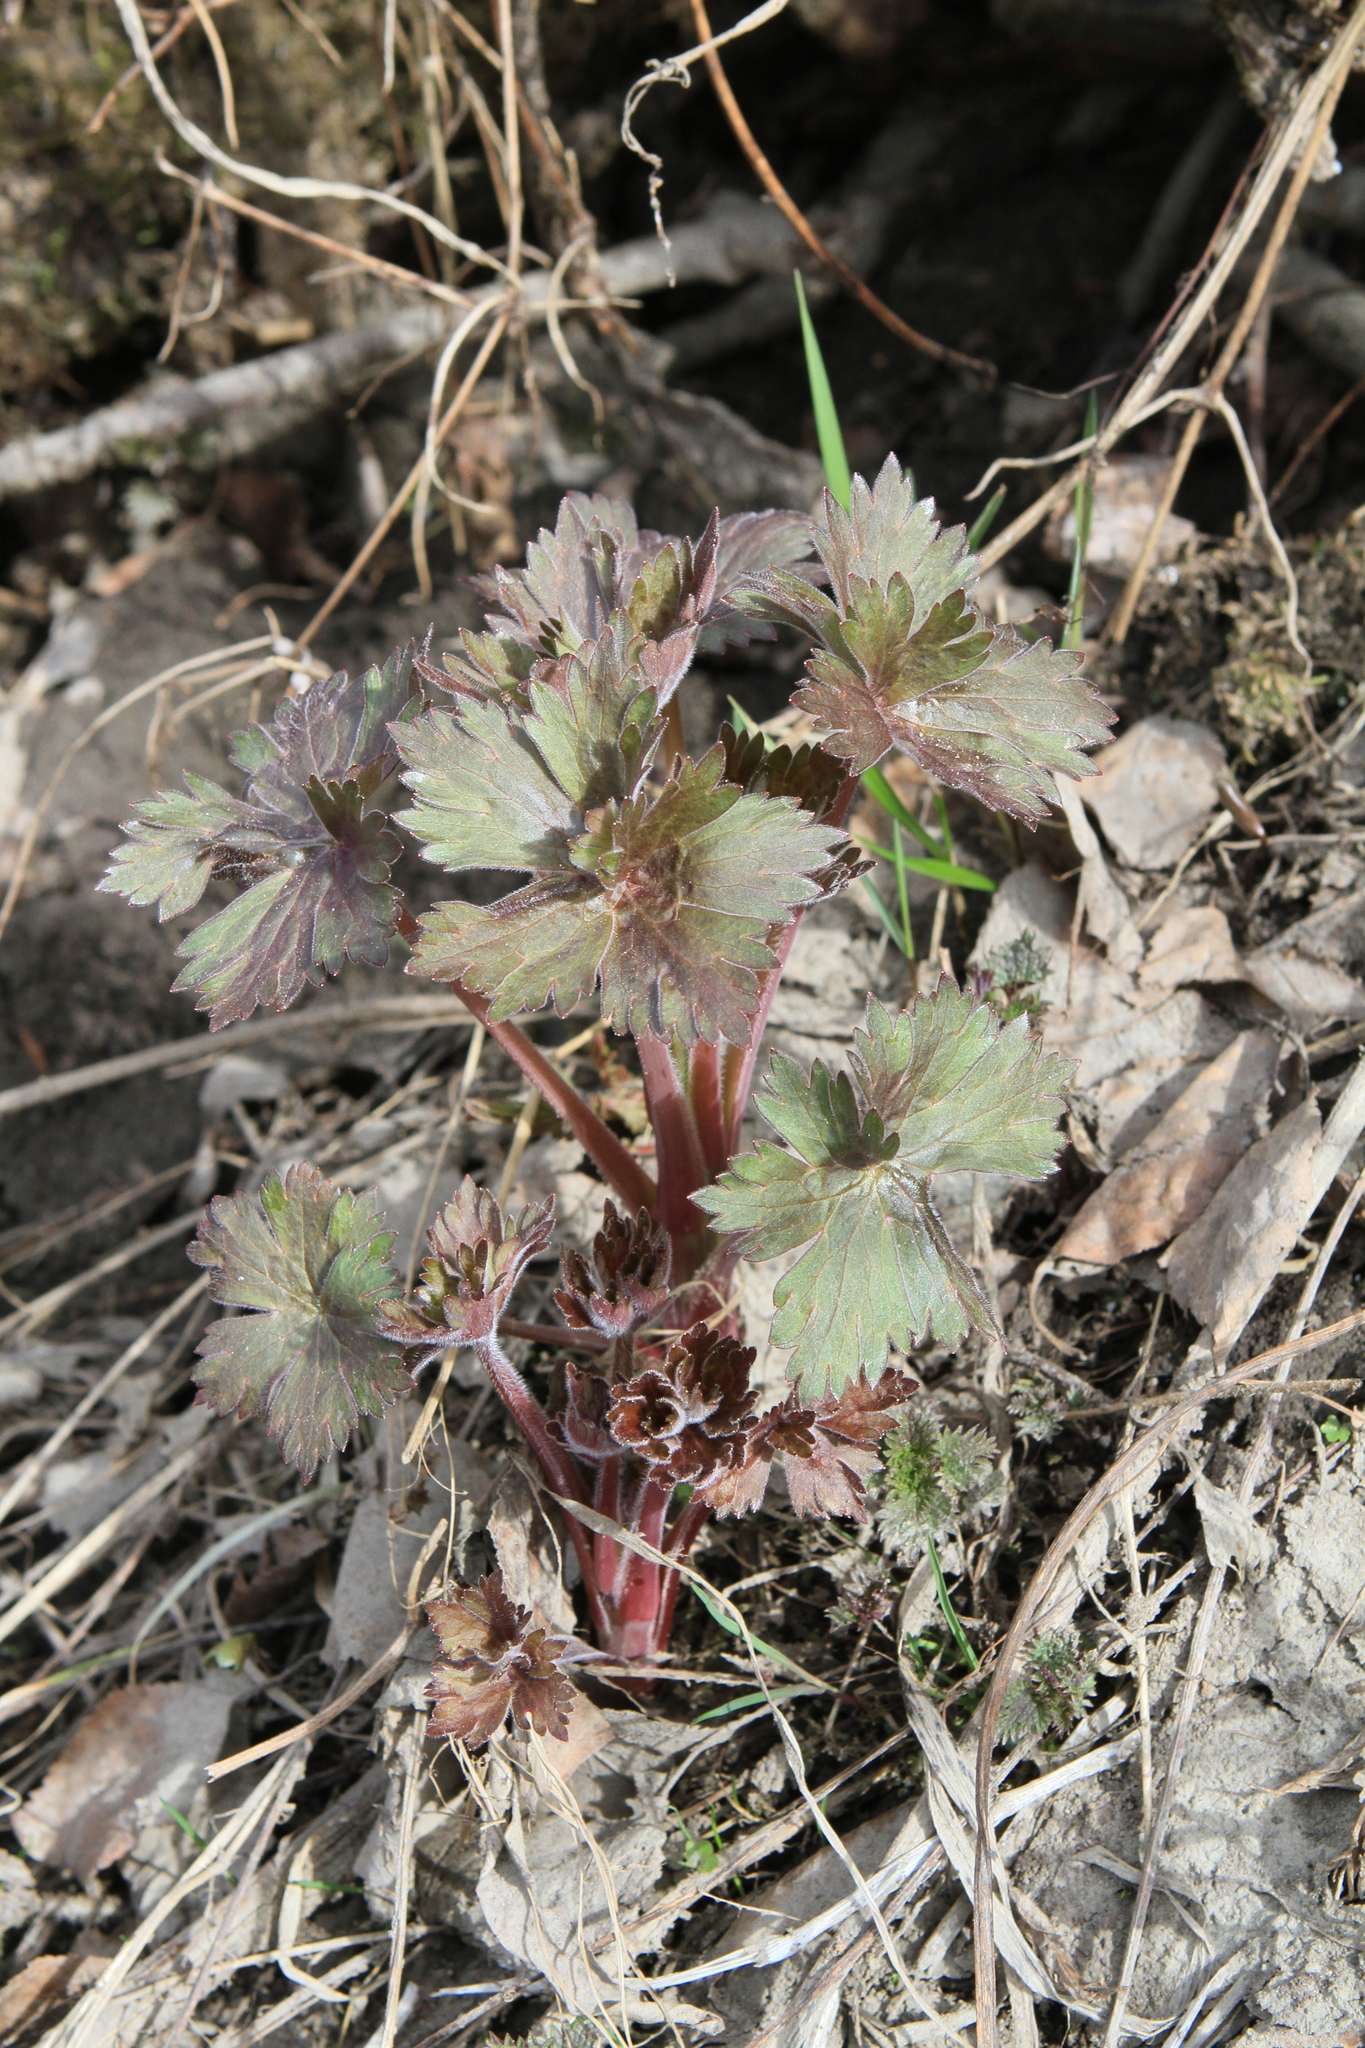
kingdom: Plantae
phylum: Tracheophyta
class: Magnoliopsida
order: Ranunculales
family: Ranunculaceae
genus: Trollius
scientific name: Trollius asiaticus
